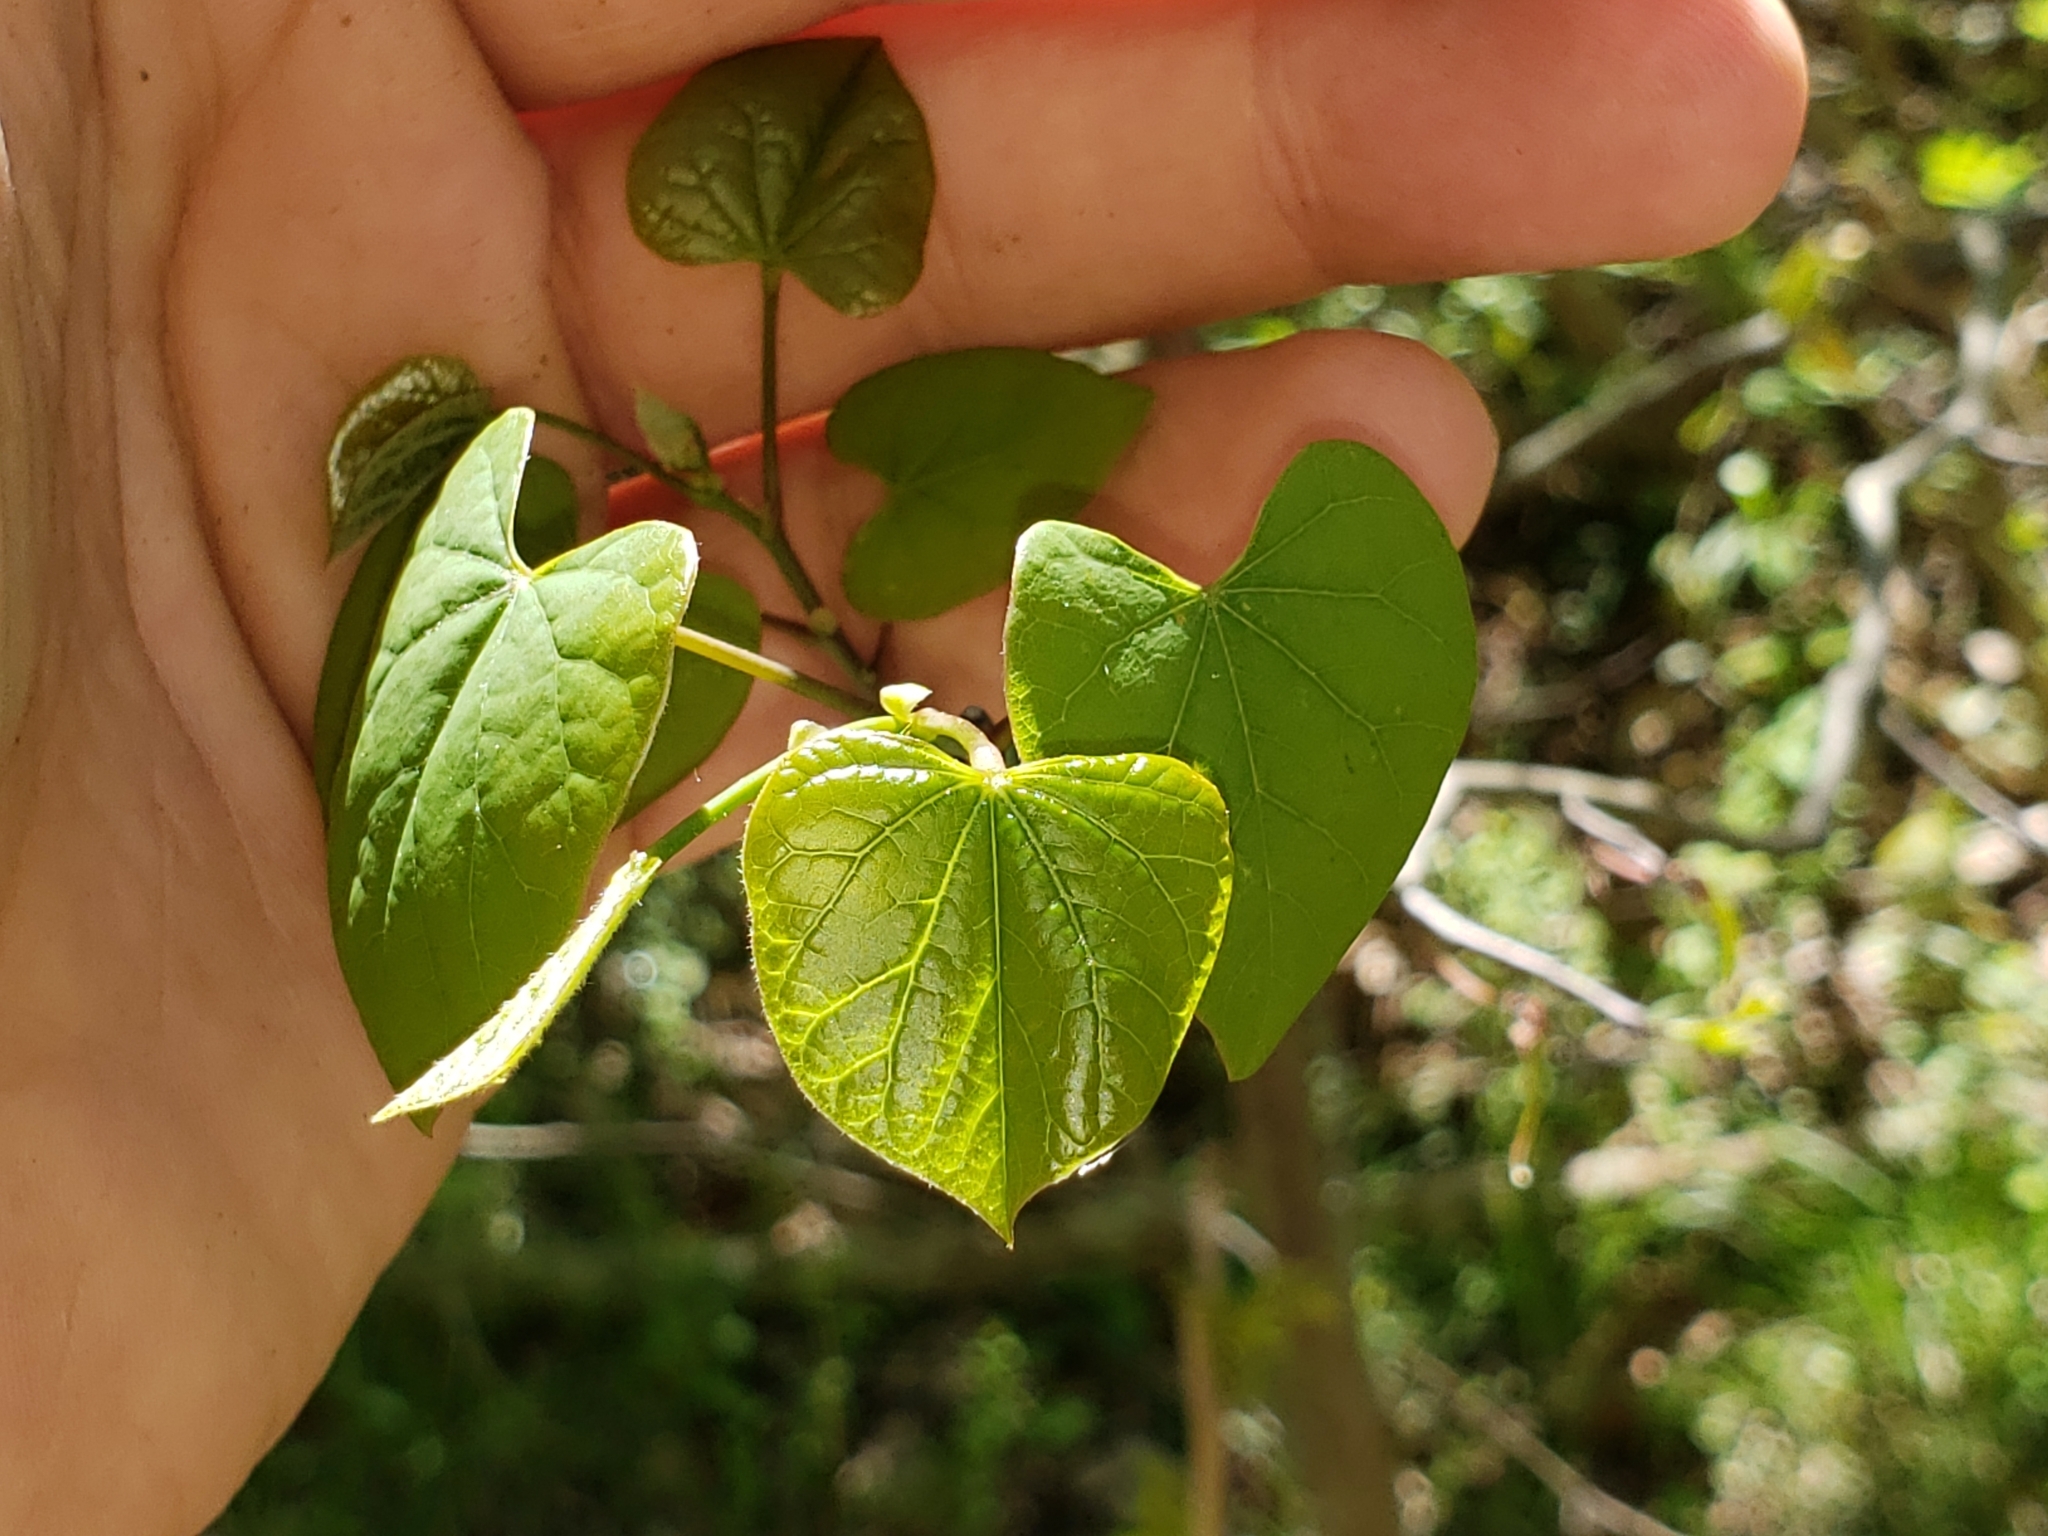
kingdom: Plantae
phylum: Tracheophyta
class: Magnoliopsida
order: Fabales
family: Fabaceae
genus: Cercis
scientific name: Cercis canadensis
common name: Eastern redbud
